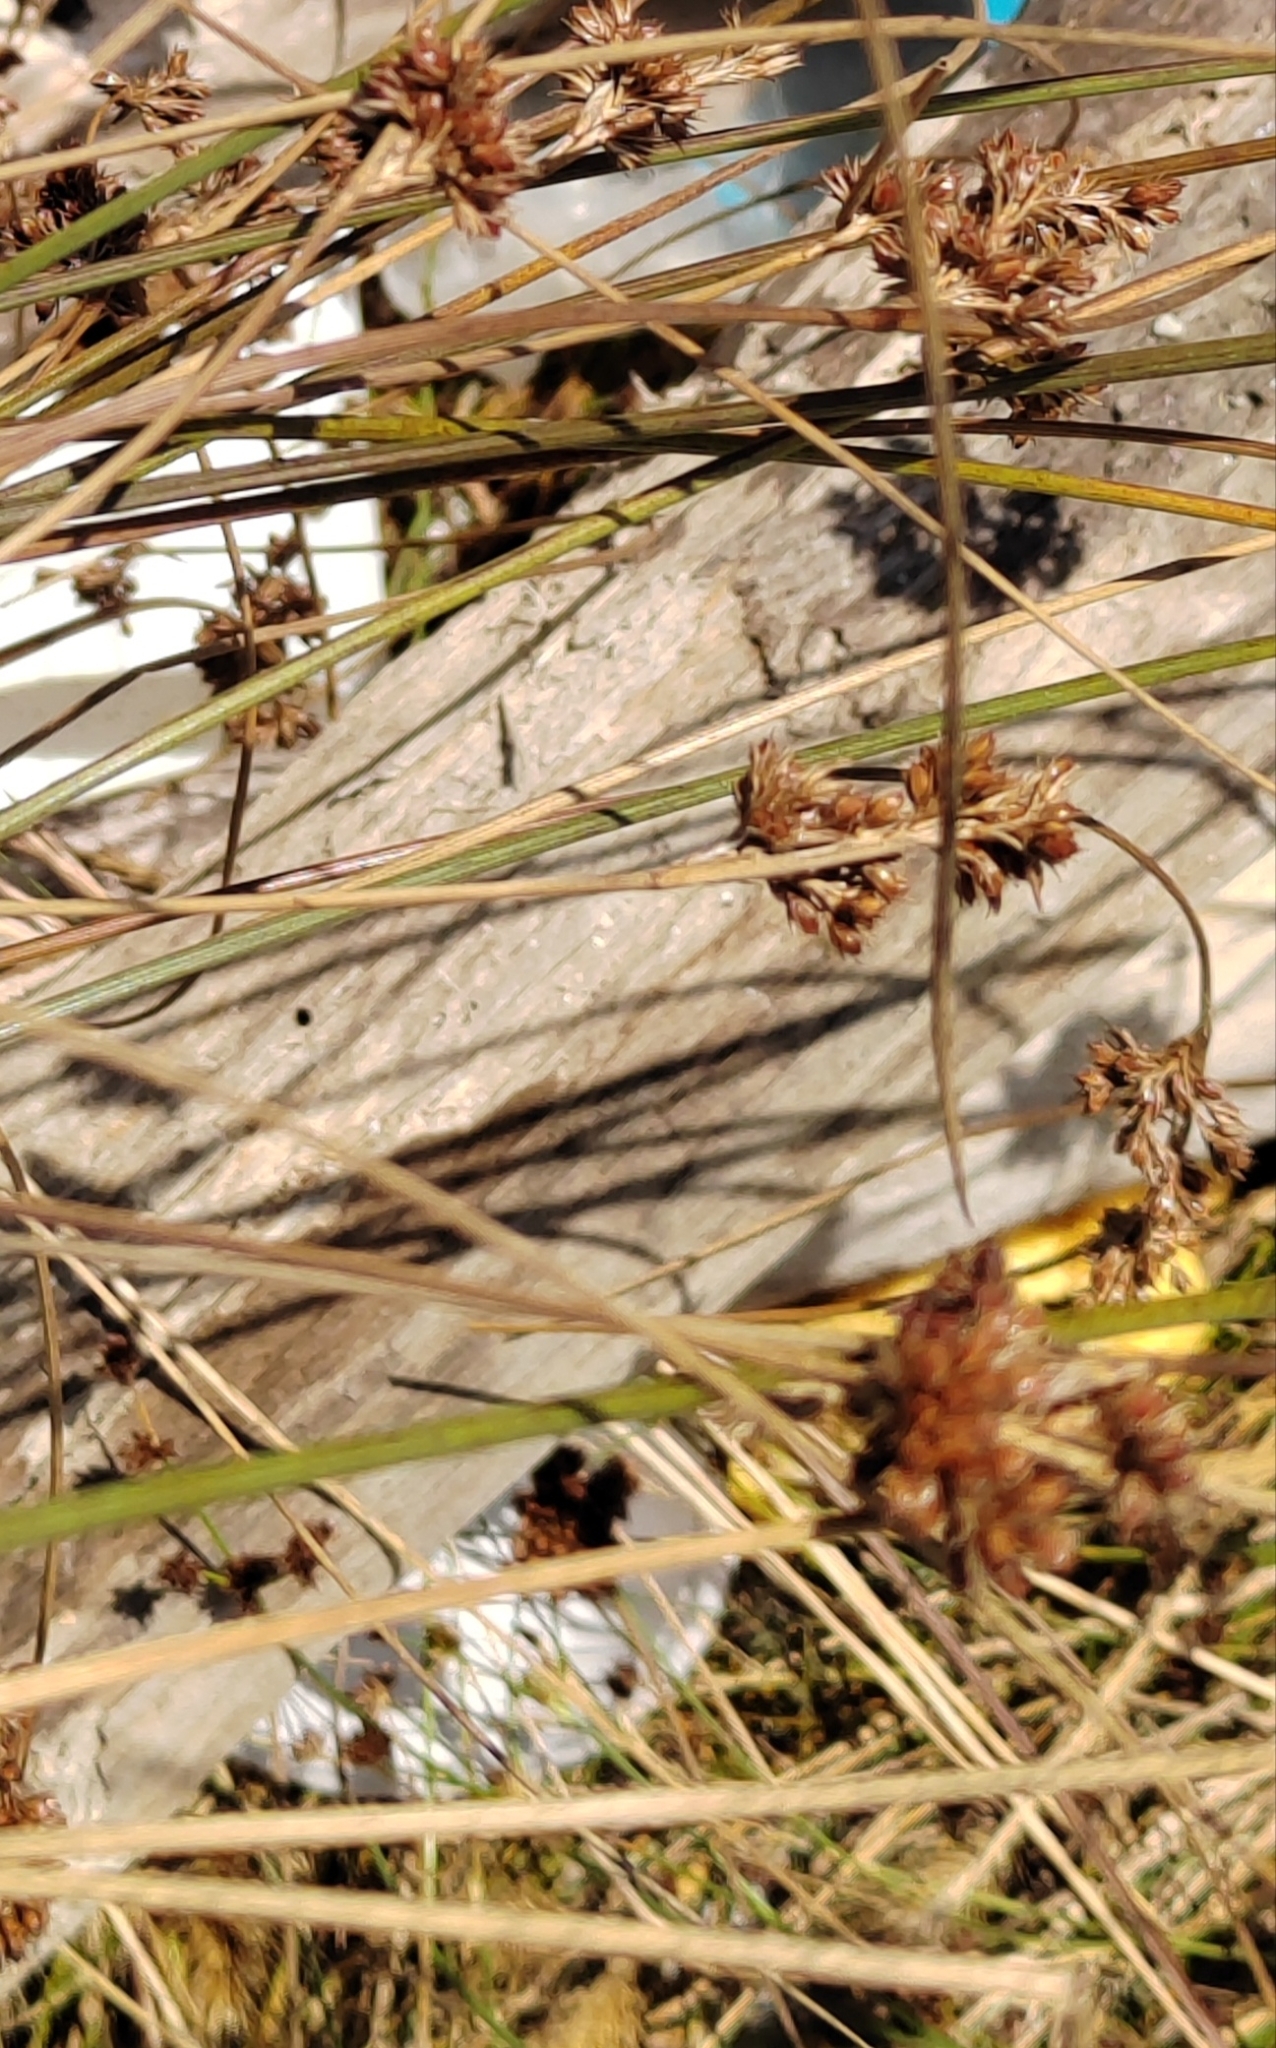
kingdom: Plantae
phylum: Tracheophyta
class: Liliopsida
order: Poales
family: Cyperaceae
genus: Bolboschoenus
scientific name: Bolboschoenus maritimus
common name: Sea club-rush
